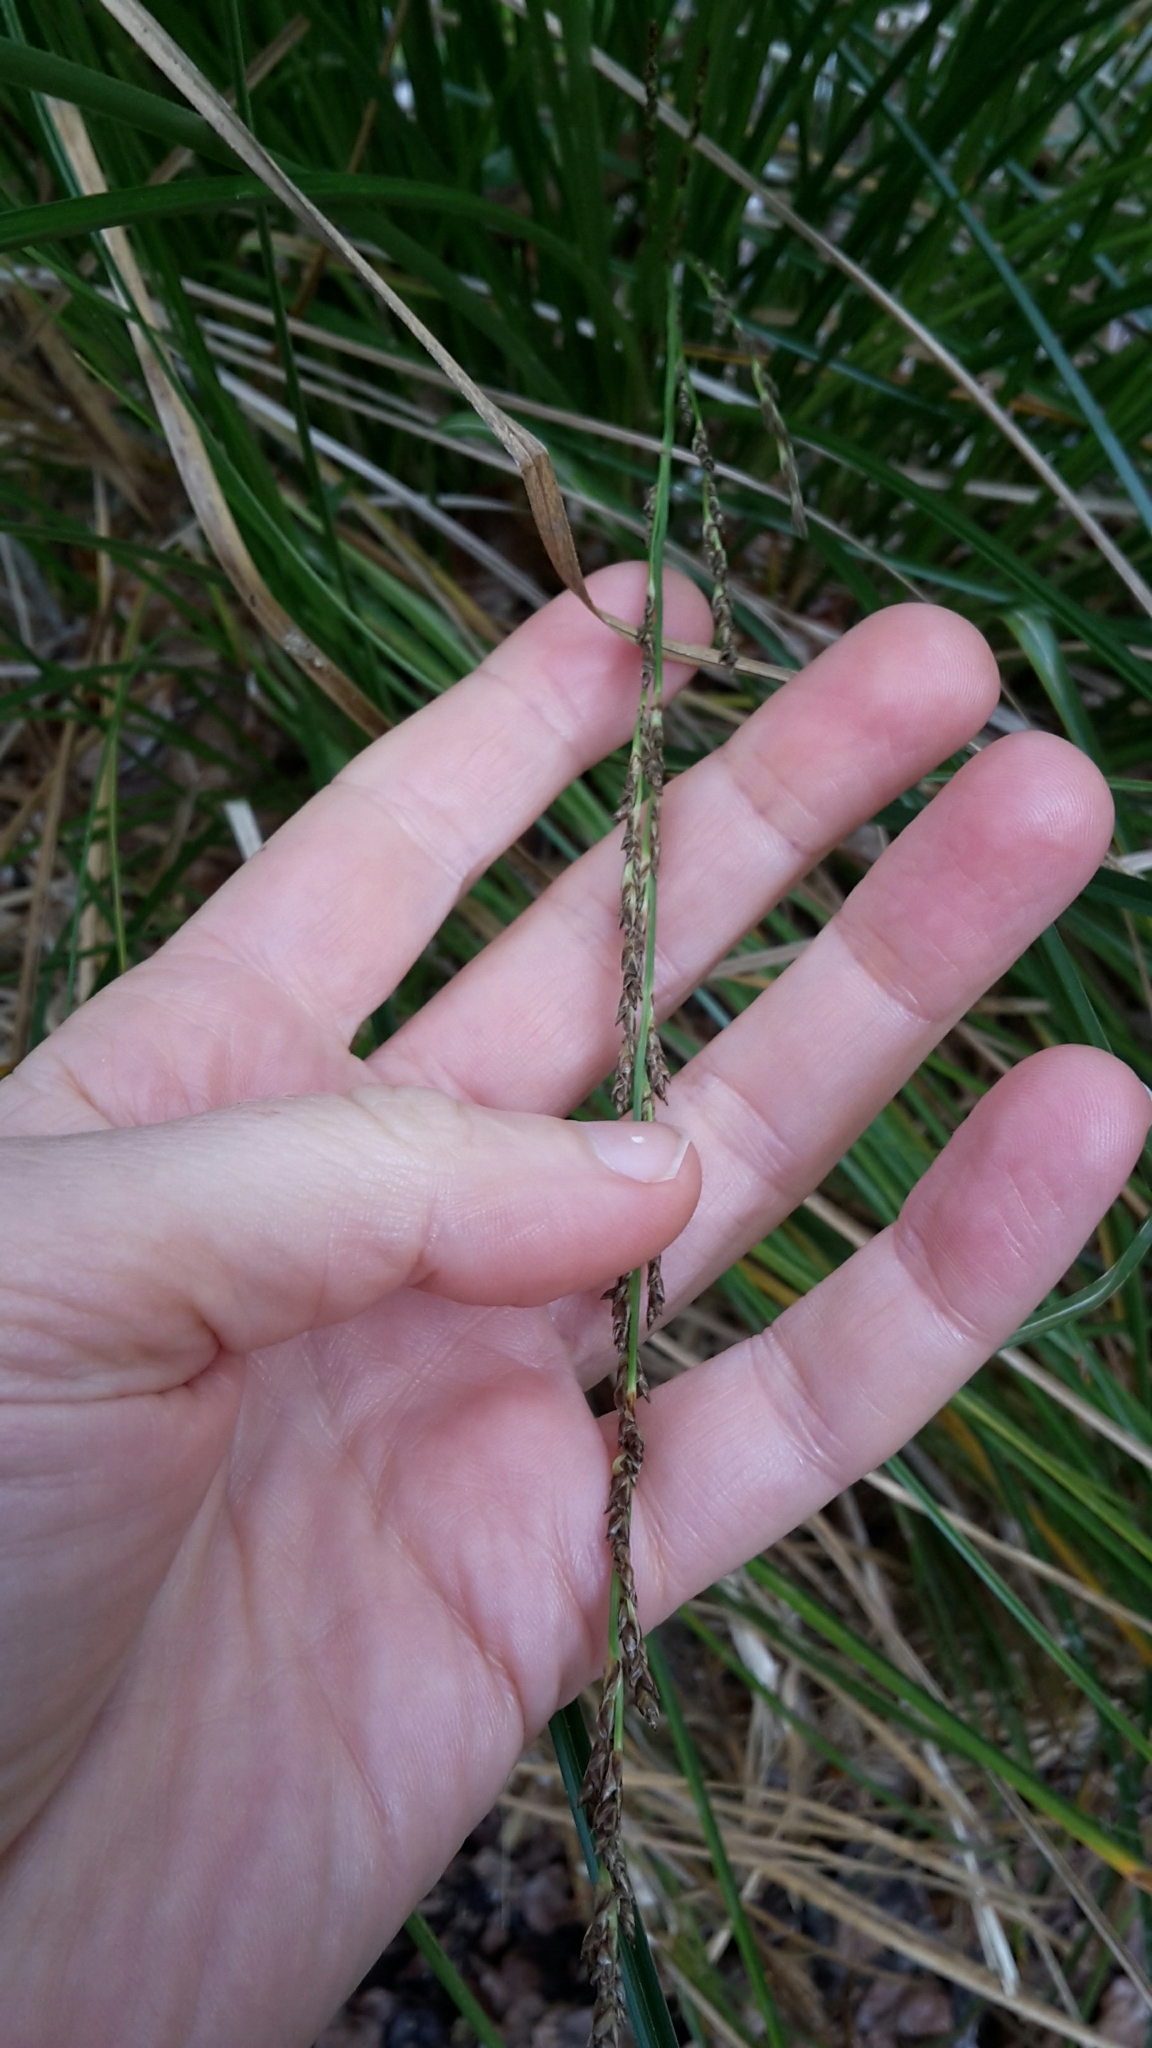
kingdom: Plantae
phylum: Tracheophyta
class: Liliopsida
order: Poales
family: Cyperaceae
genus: Carex
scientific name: Carex virgata
